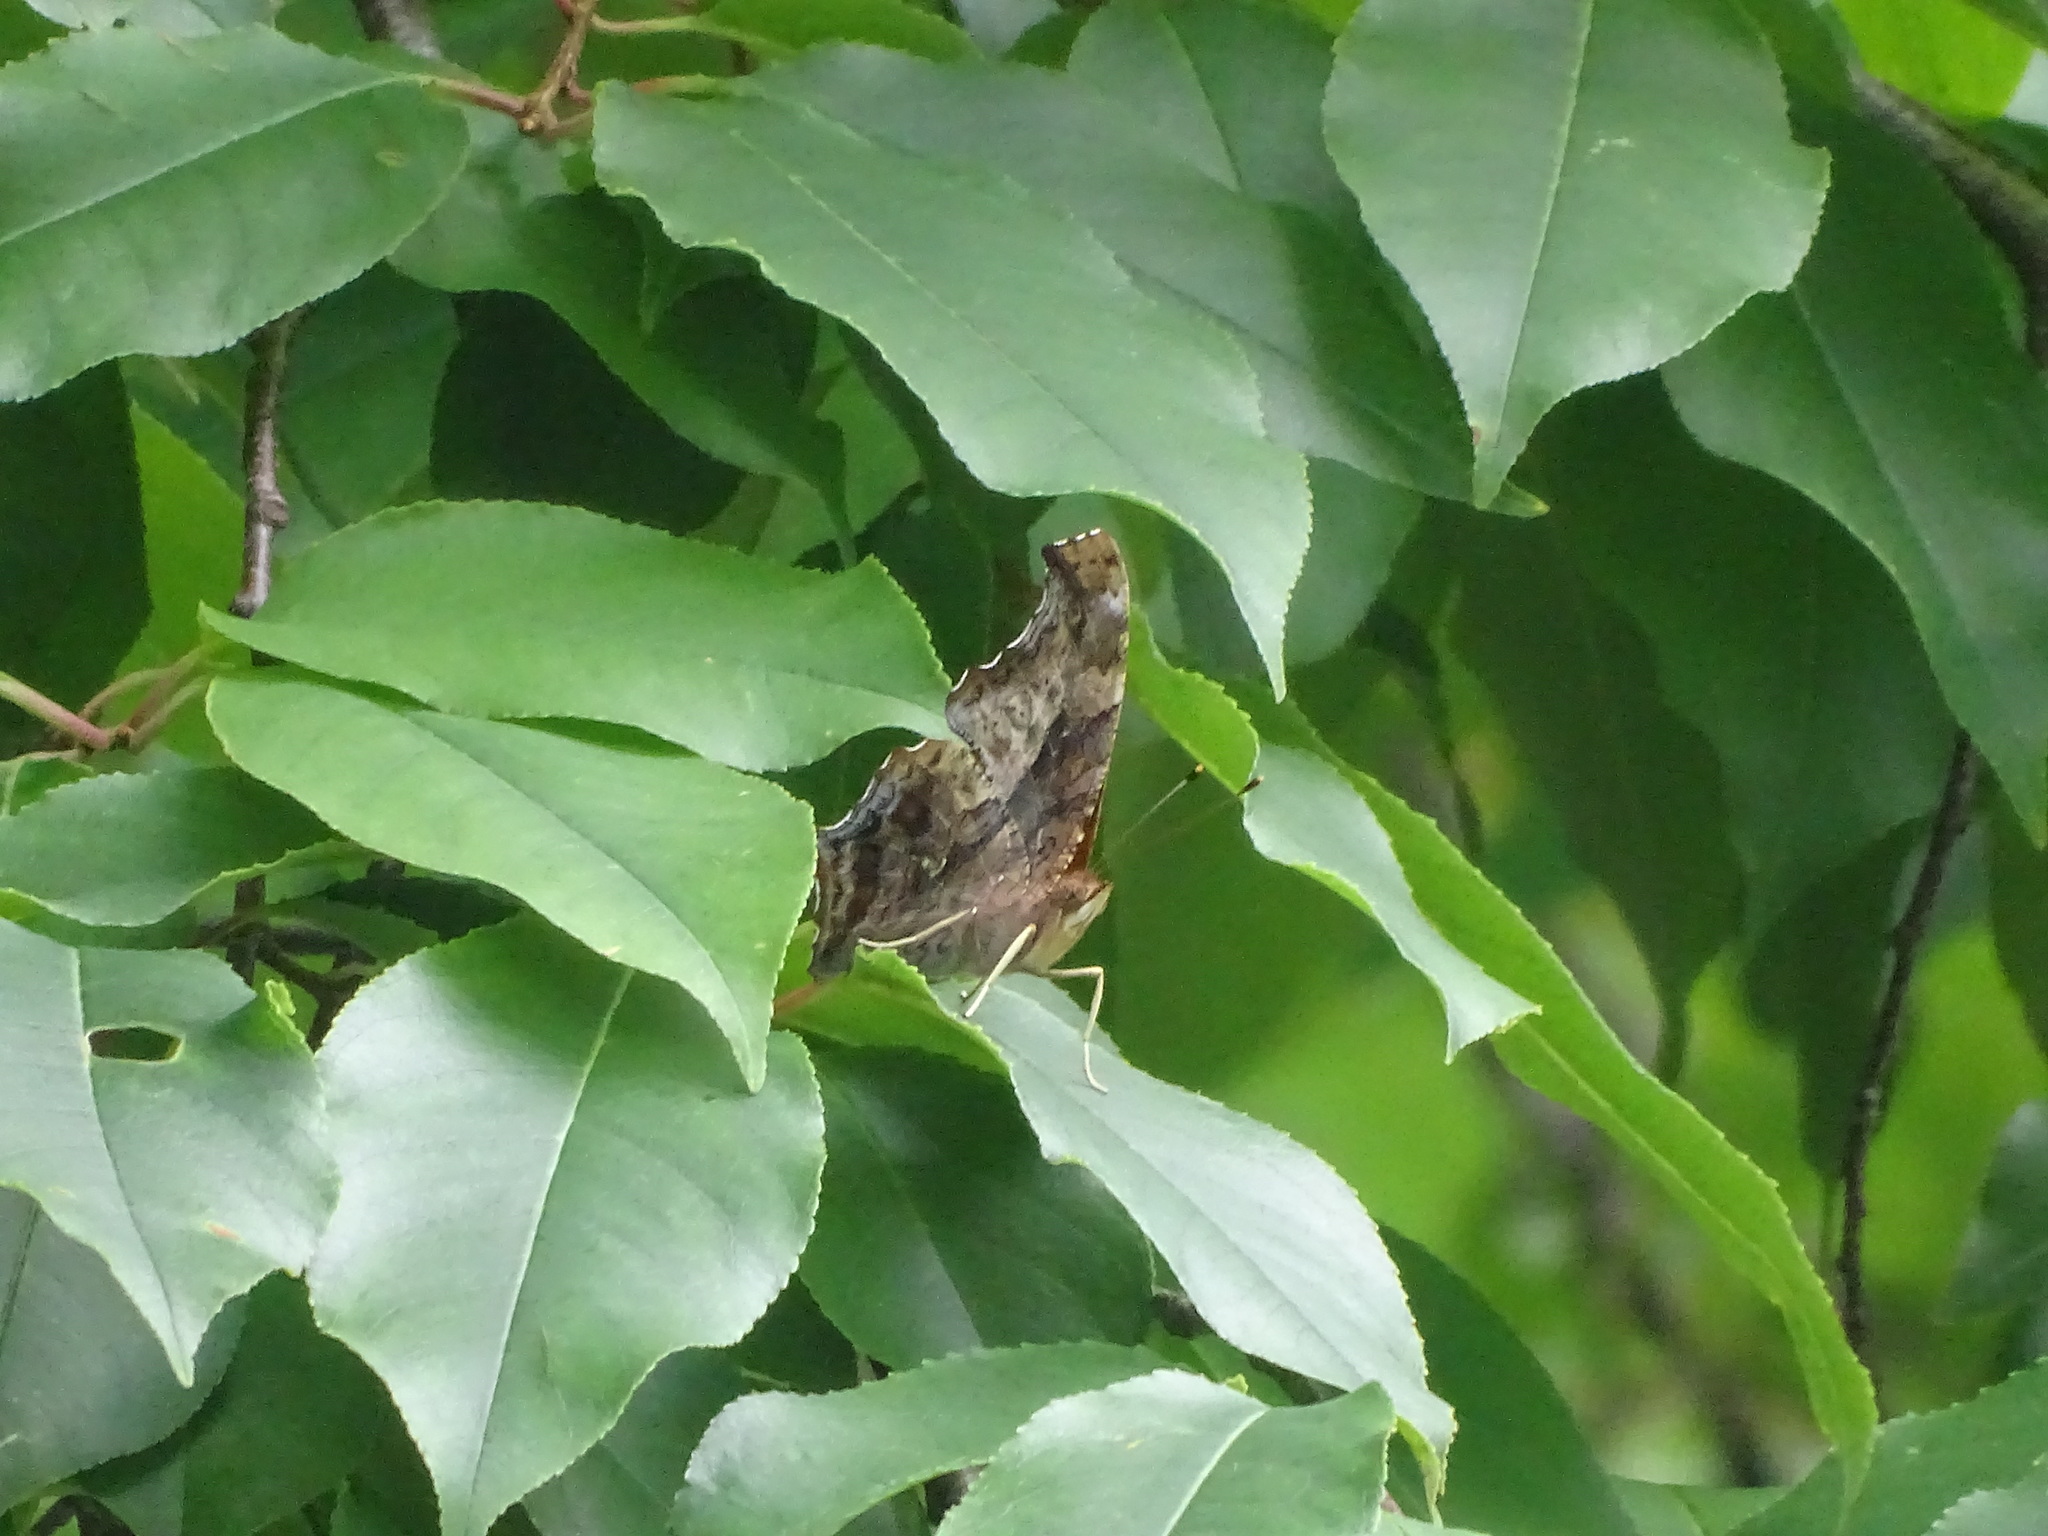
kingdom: Animalia
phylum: Arthropoda
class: Insecta
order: Lepidoptera
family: Nymphalidae
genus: Polygonia
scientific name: Polygonia interrogationis
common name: Question mark
